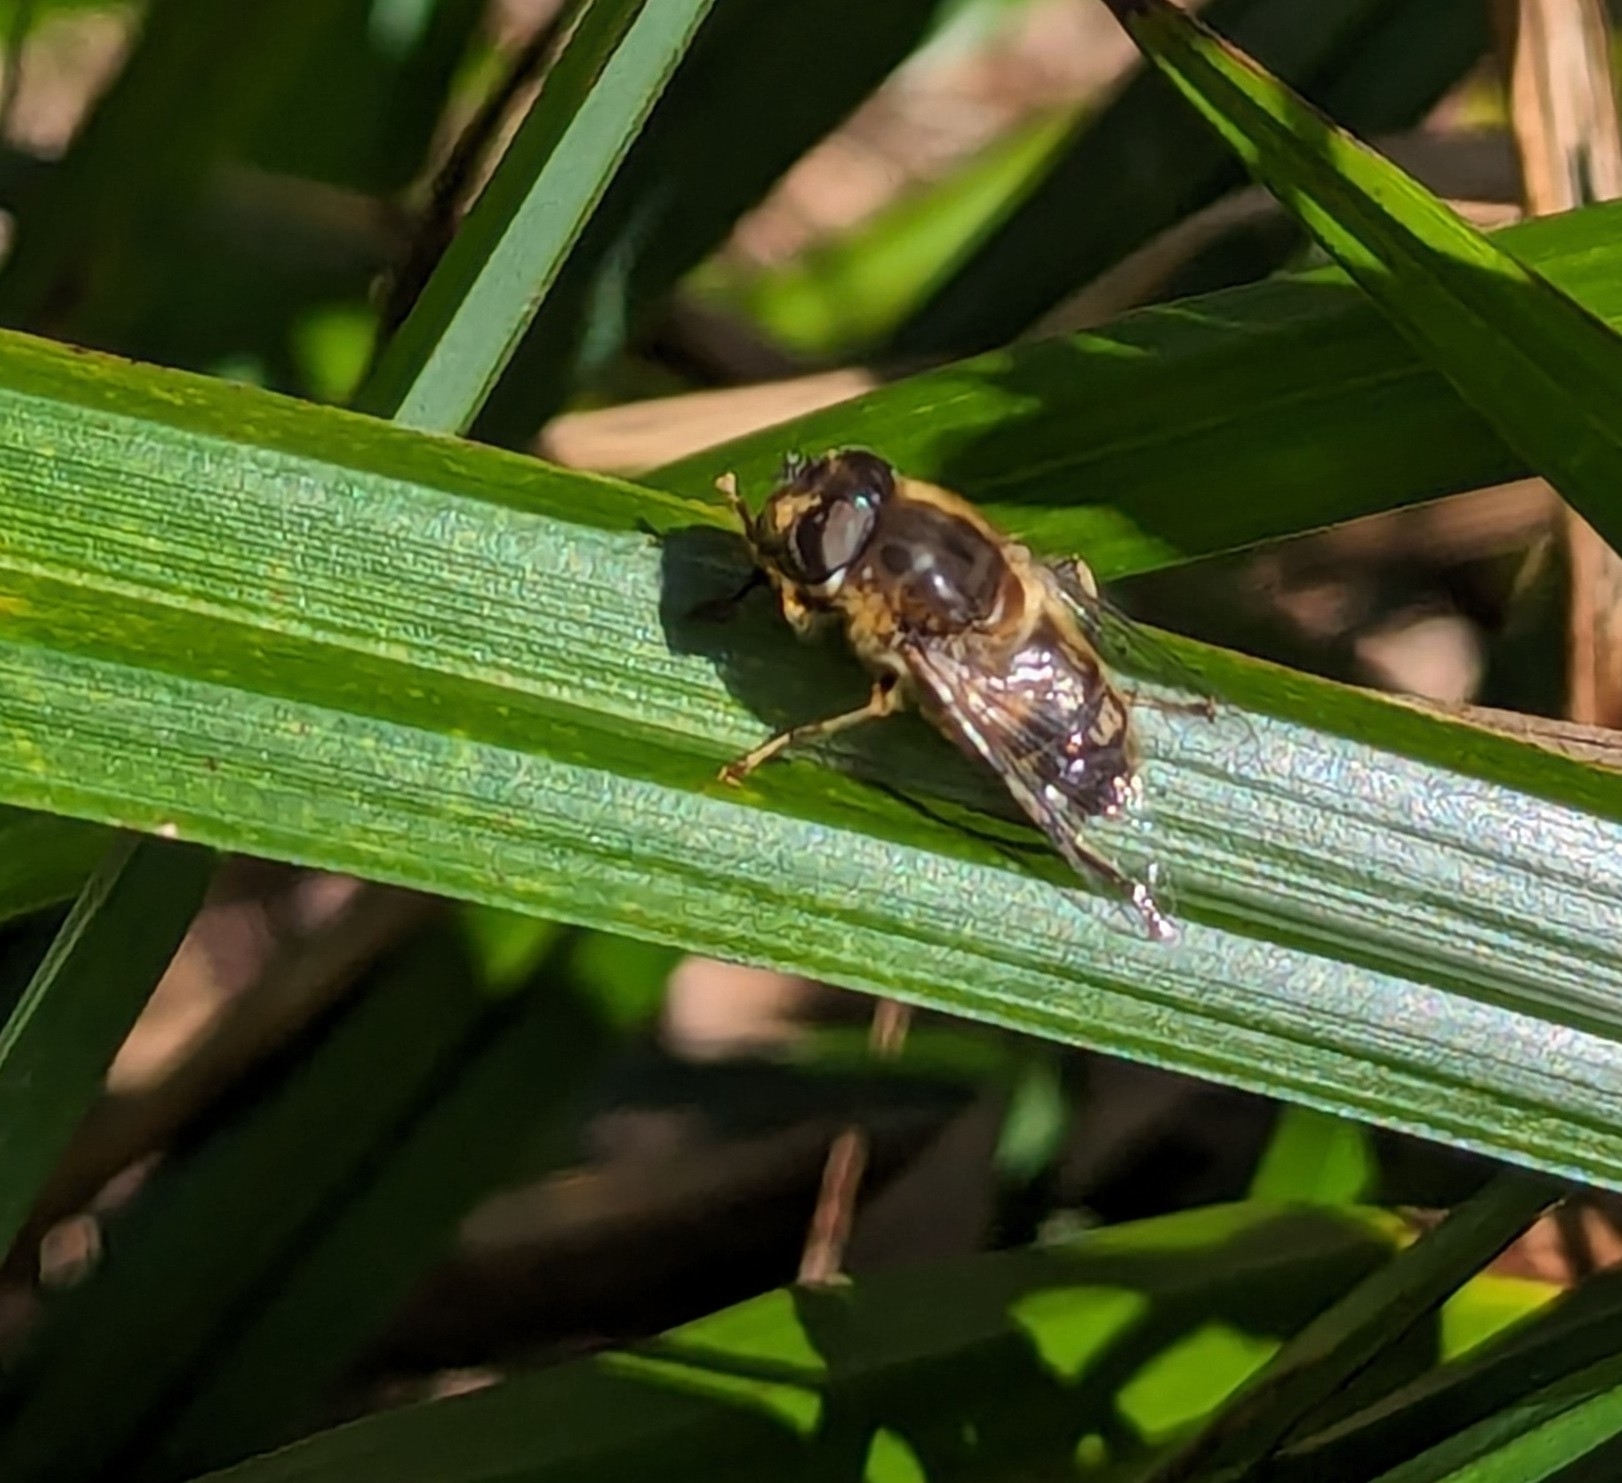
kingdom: Animalia
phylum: Arthropoda
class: Insecta
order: Diptera
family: Syrphidae
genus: Eristalis
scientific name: Eristalis pertinax
